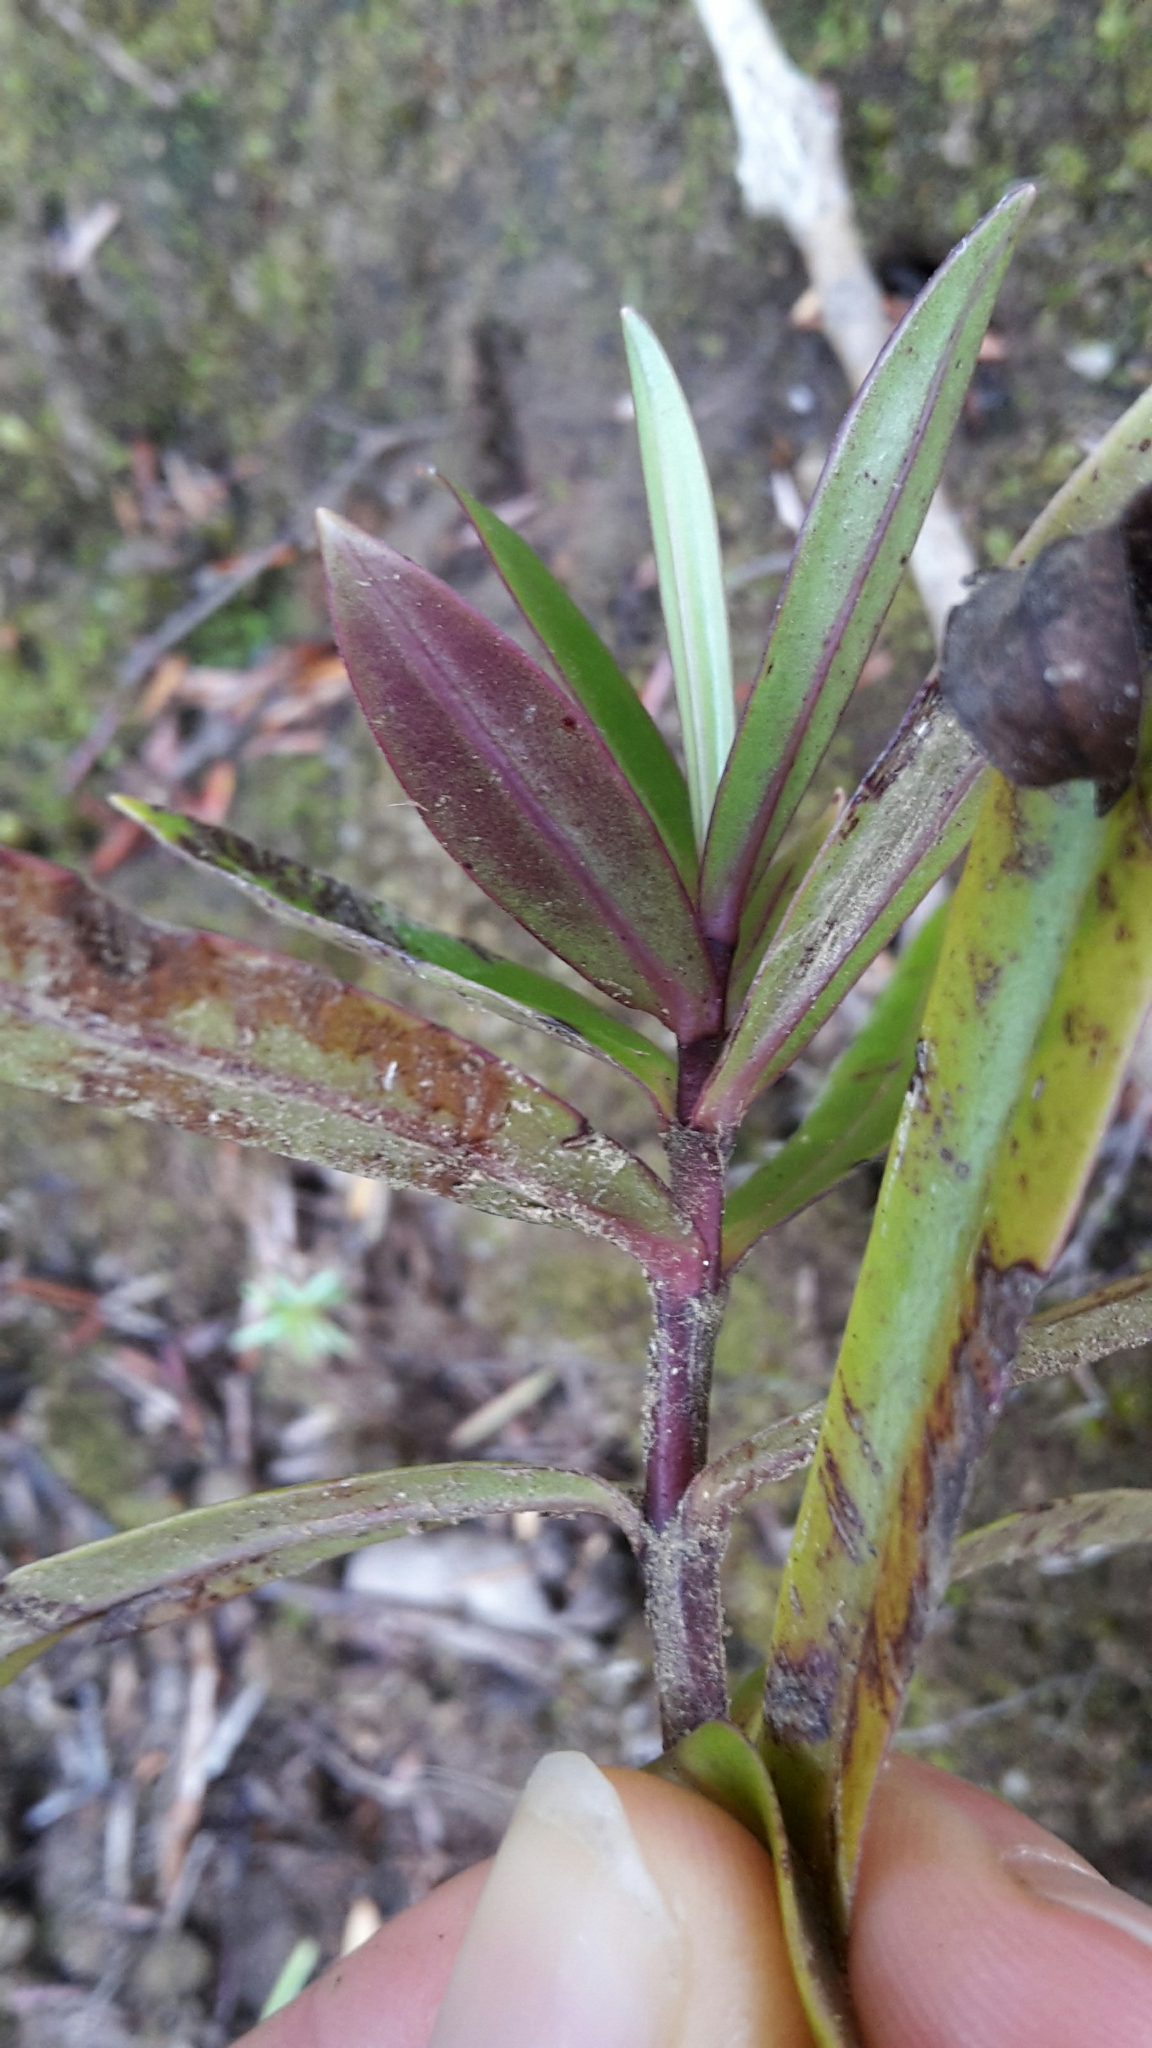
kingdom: Plantae
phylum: Tracheophyta
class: Magnoliopsida
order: Lamiales
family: Plantaginaceae
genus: Veronica
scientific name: Veronica macrocarpa
